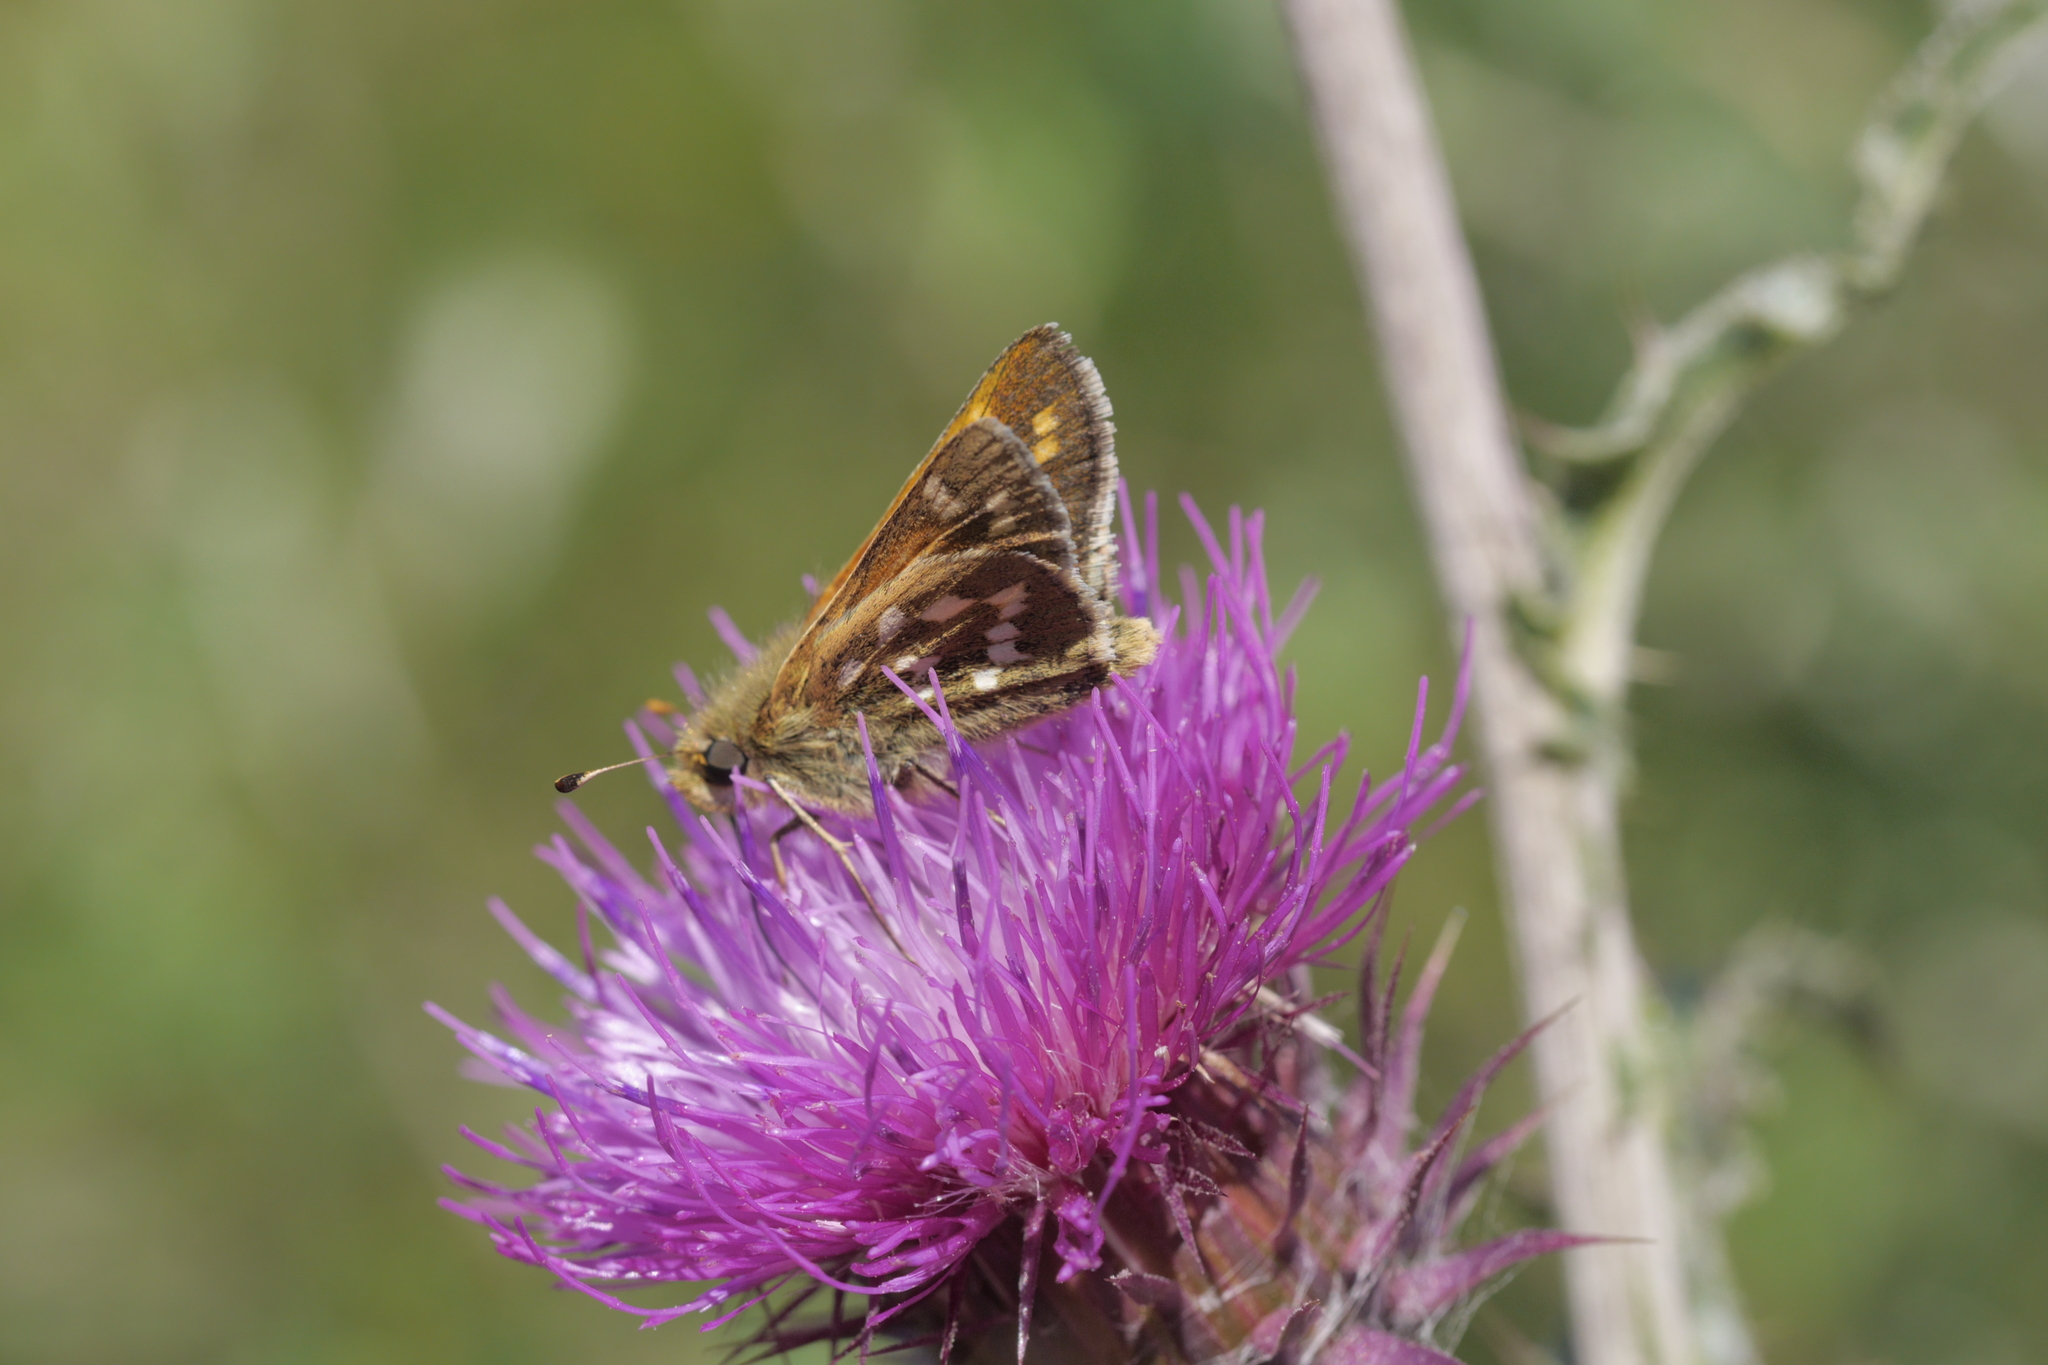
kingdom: Animalia
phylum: Arthropoda
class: Insecta
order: Lepidoptera
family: Hesperiidae
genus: Hesperia
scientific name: Hesperia comma
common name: Common branded skipper
